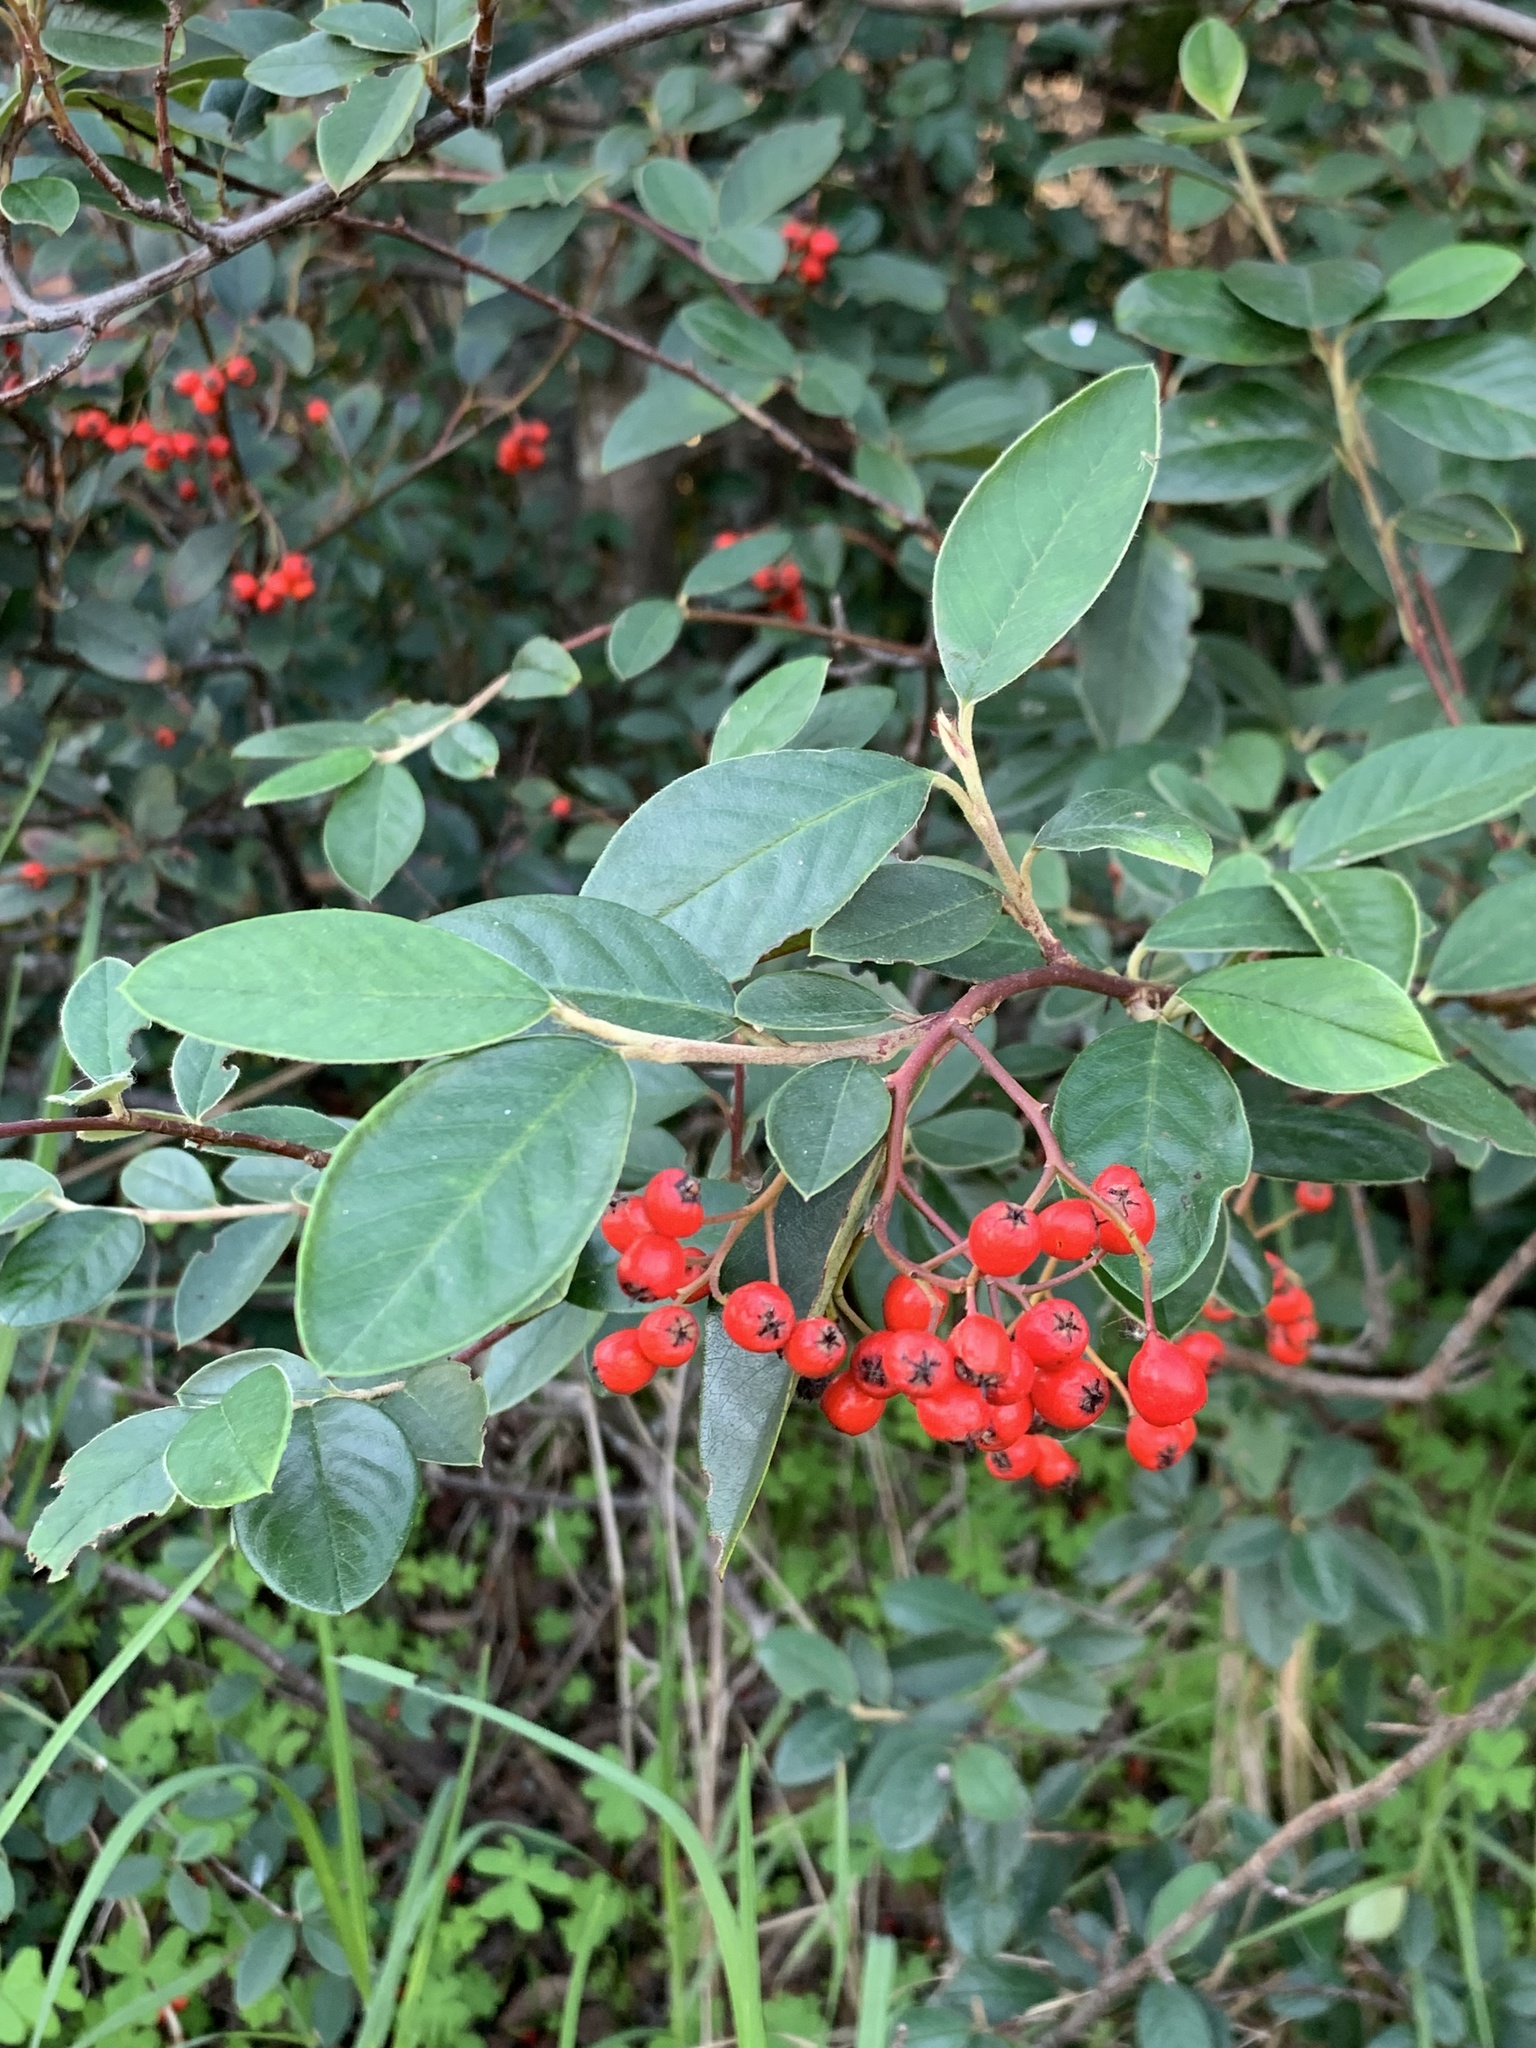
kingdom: Plantae
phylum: Tracheophyta
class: Magnoliopsida
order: Rosales
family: Rosaceae
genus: Cotoneaster
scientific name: Cotoneaster glaucophyllus
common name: Glaucous cotoneaster
